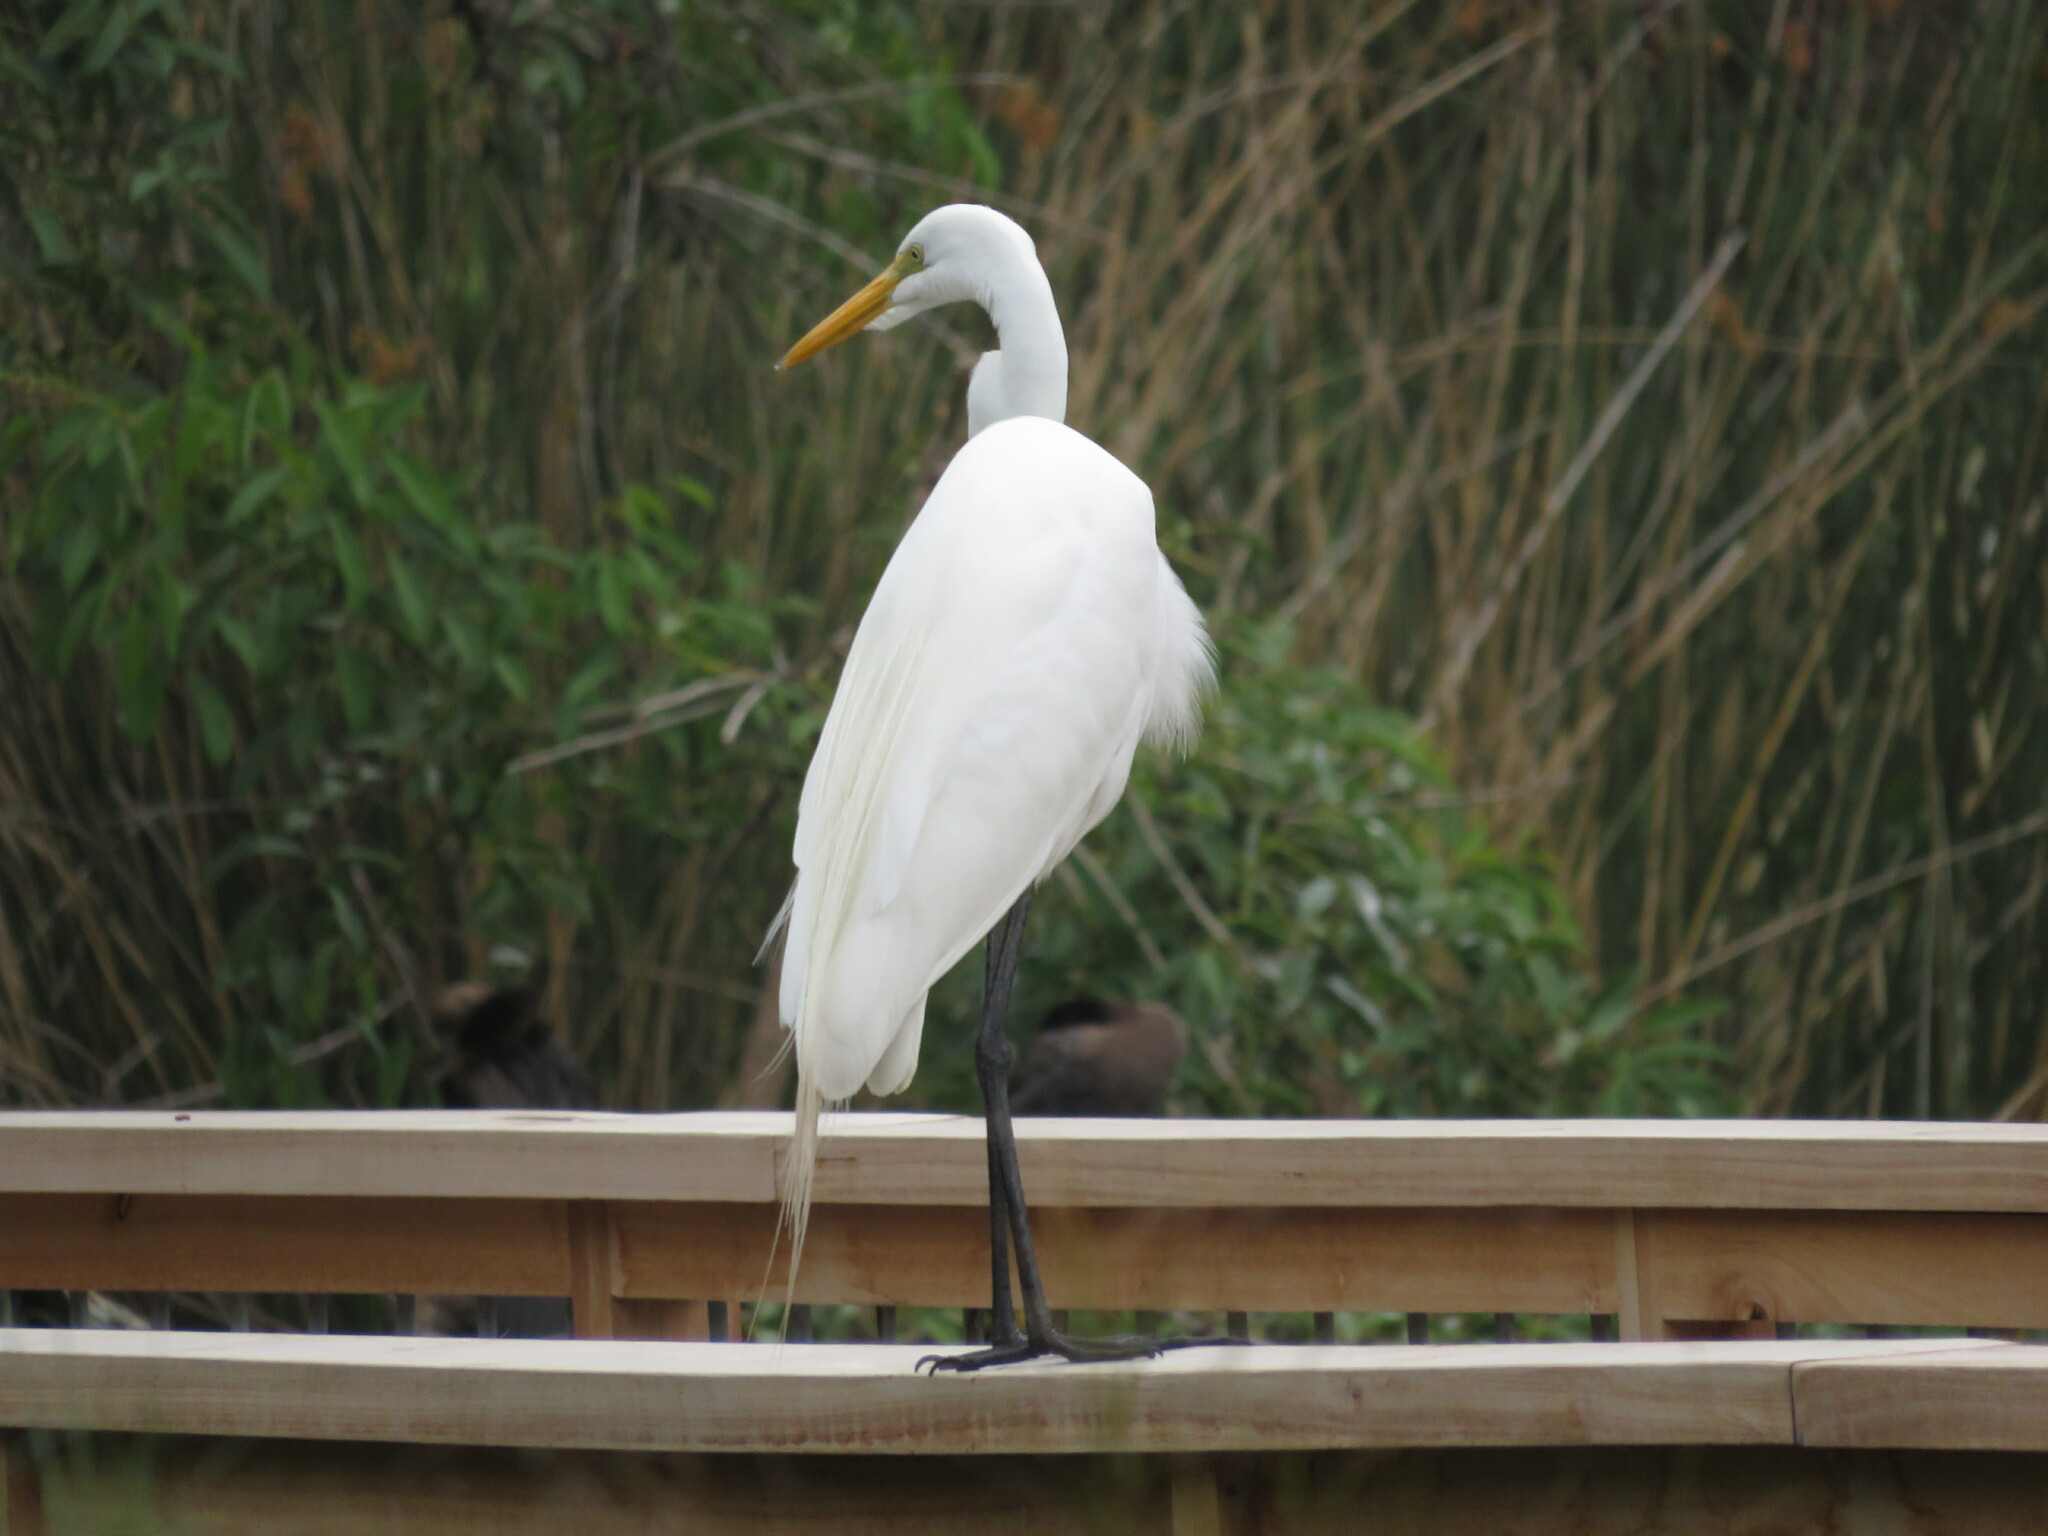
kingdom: Animalia
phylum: Chordata
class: Aves
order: Pelecaniformes
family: Ardeidae
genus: Ardea
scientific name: Ardea alba
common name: Great egret
